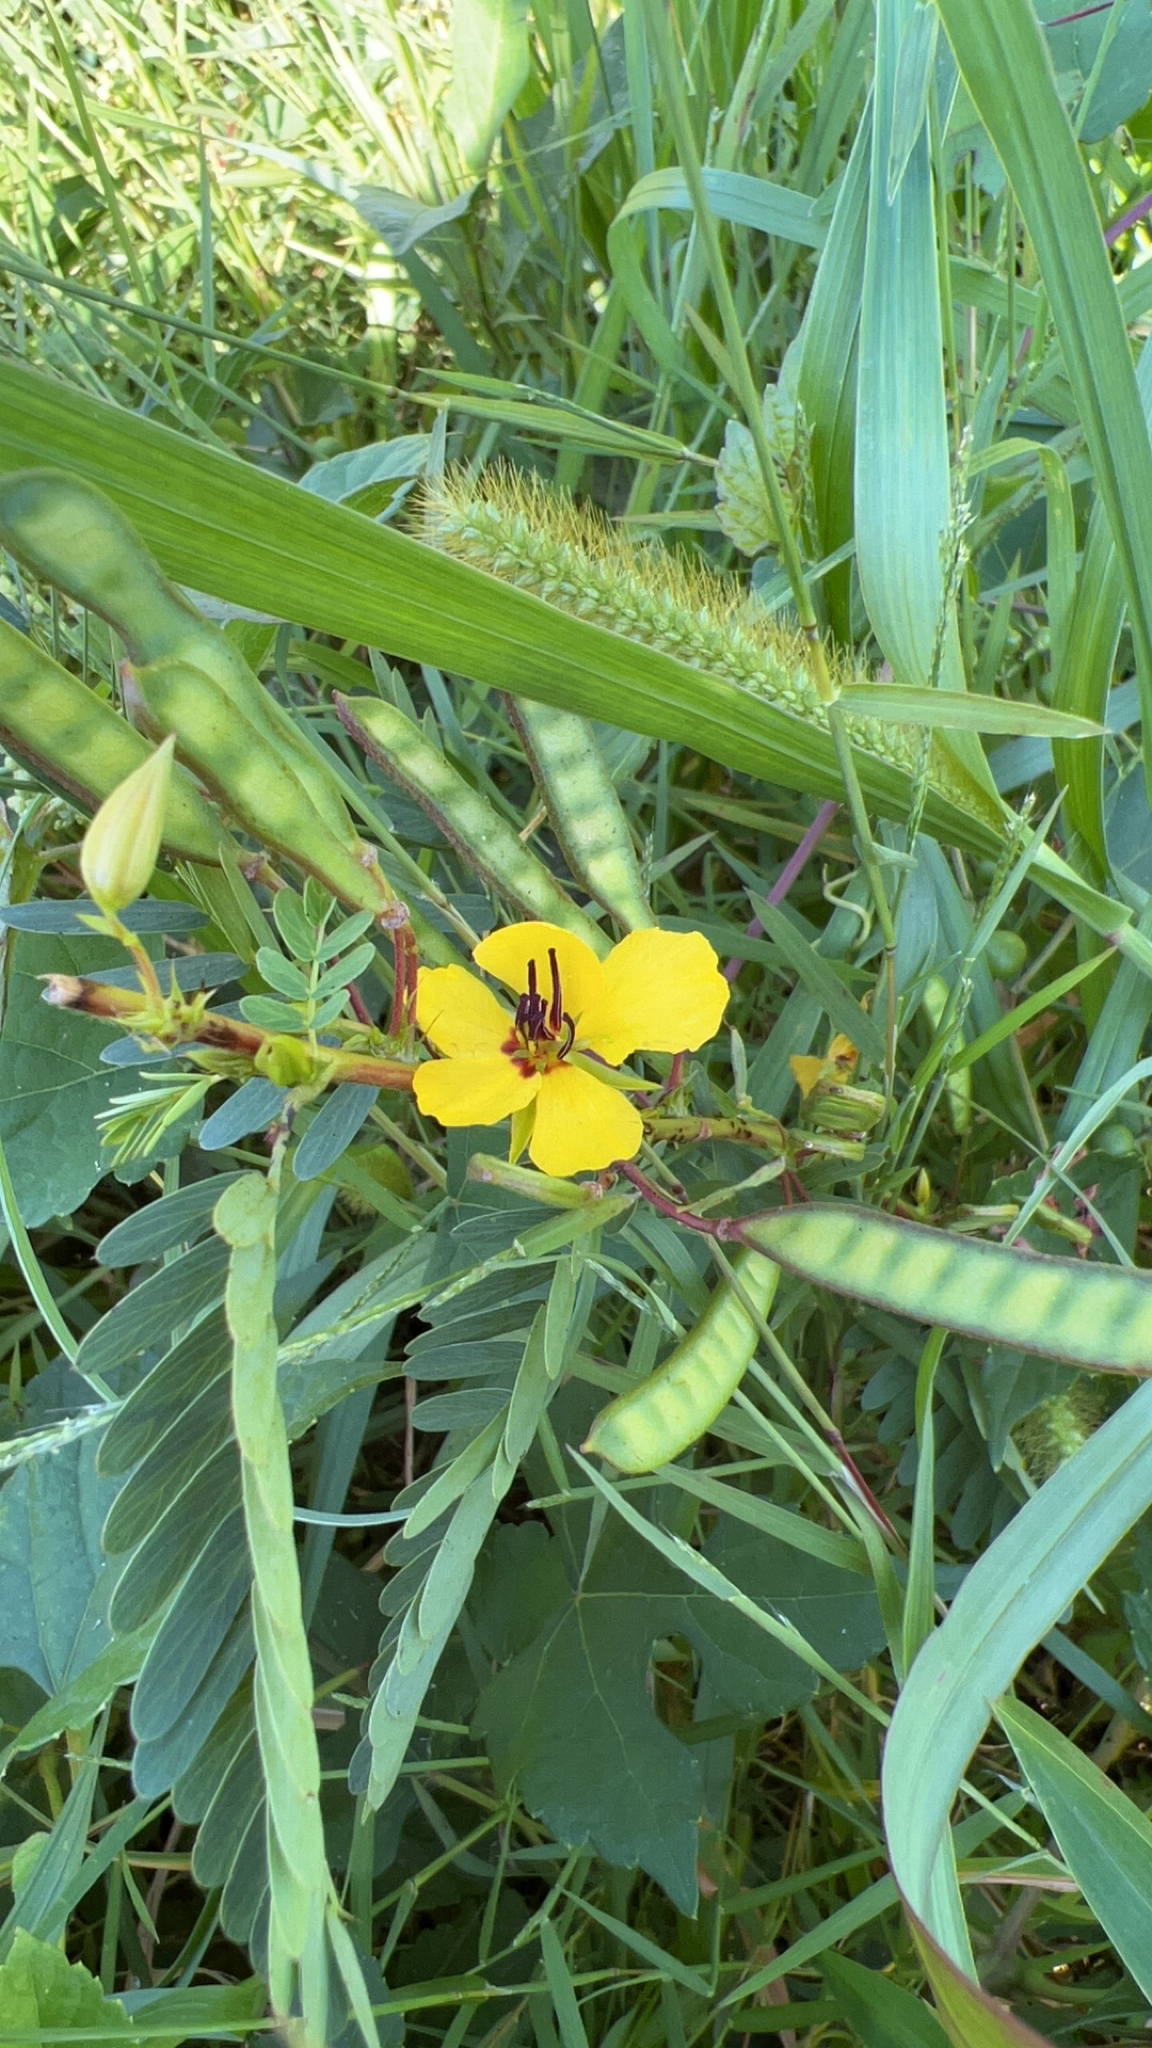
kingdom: Plantae
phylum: Tracheophyta
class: Magnoliopsida
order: Fabales
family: Fabaceae
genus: Chamaecrista
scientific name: Chamaecrista fasciculata
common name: Golden cassia
